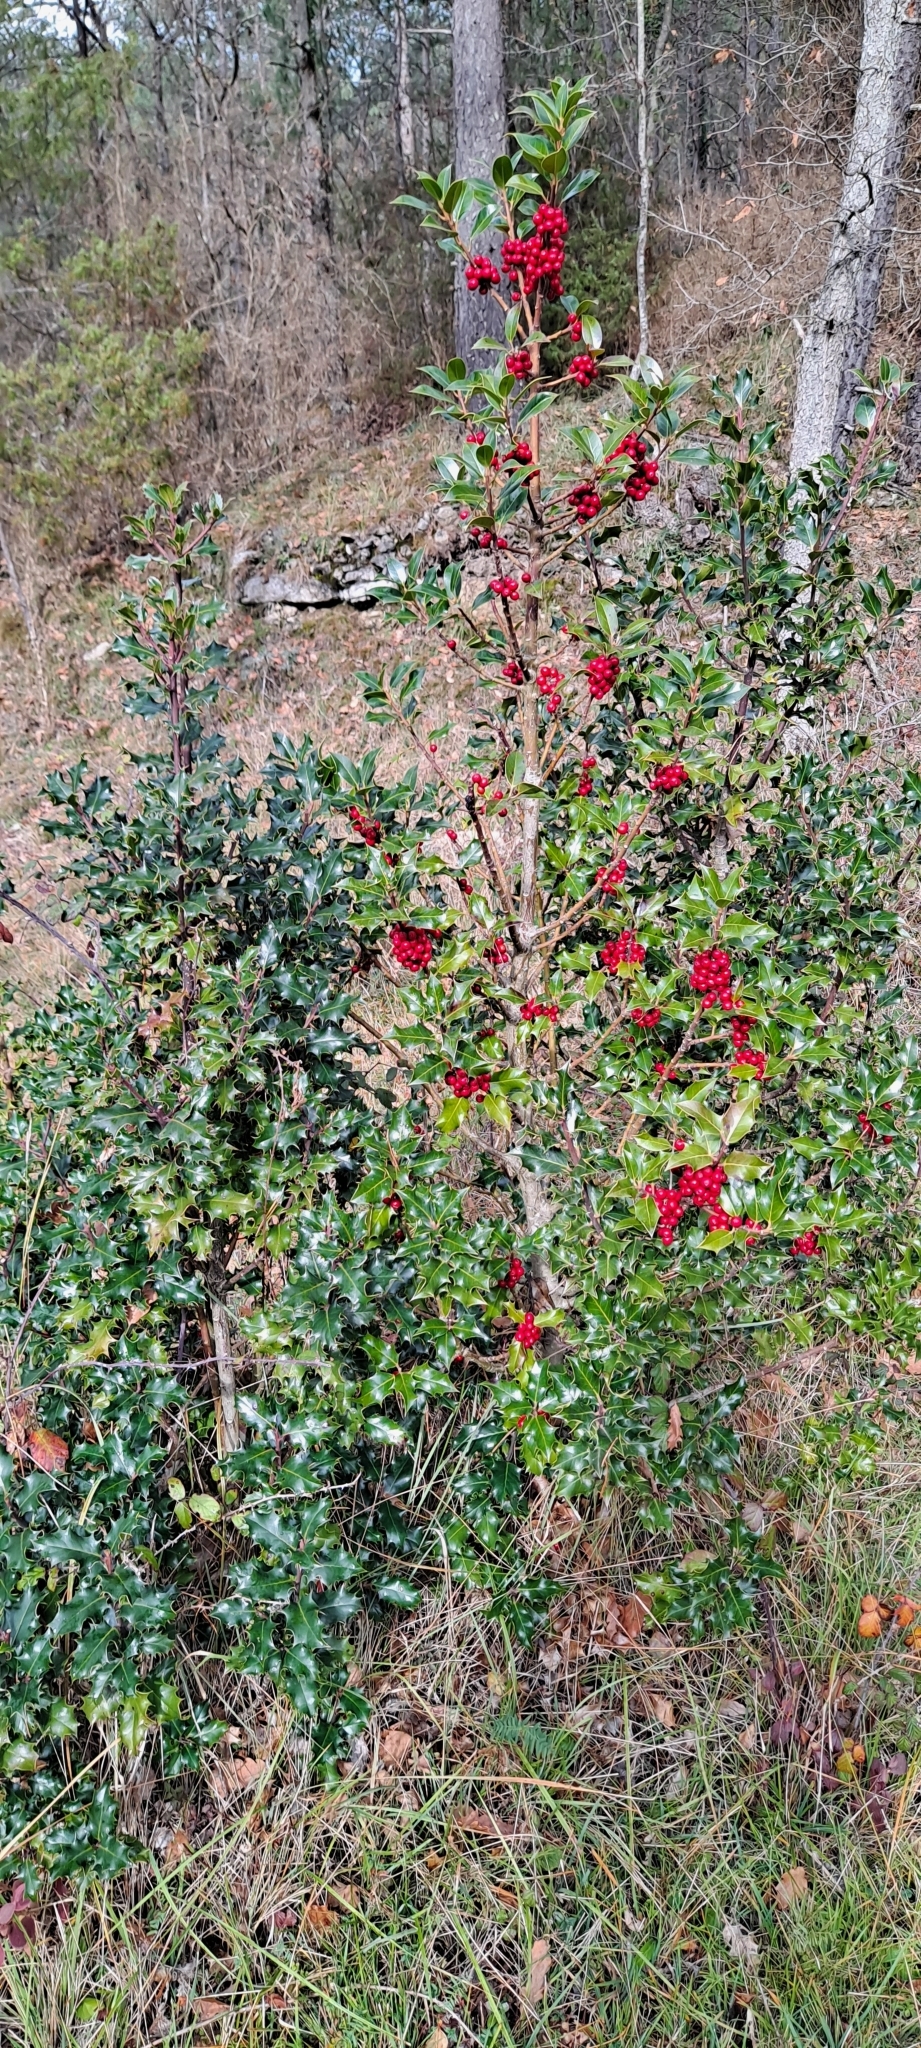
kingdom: Plantae
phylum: Tracheophyta
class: Magnoliopsida
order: Aquifoliales
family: Aquifoliaceae
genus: Ilex
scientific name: Ilex aquifolium
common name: English holly
